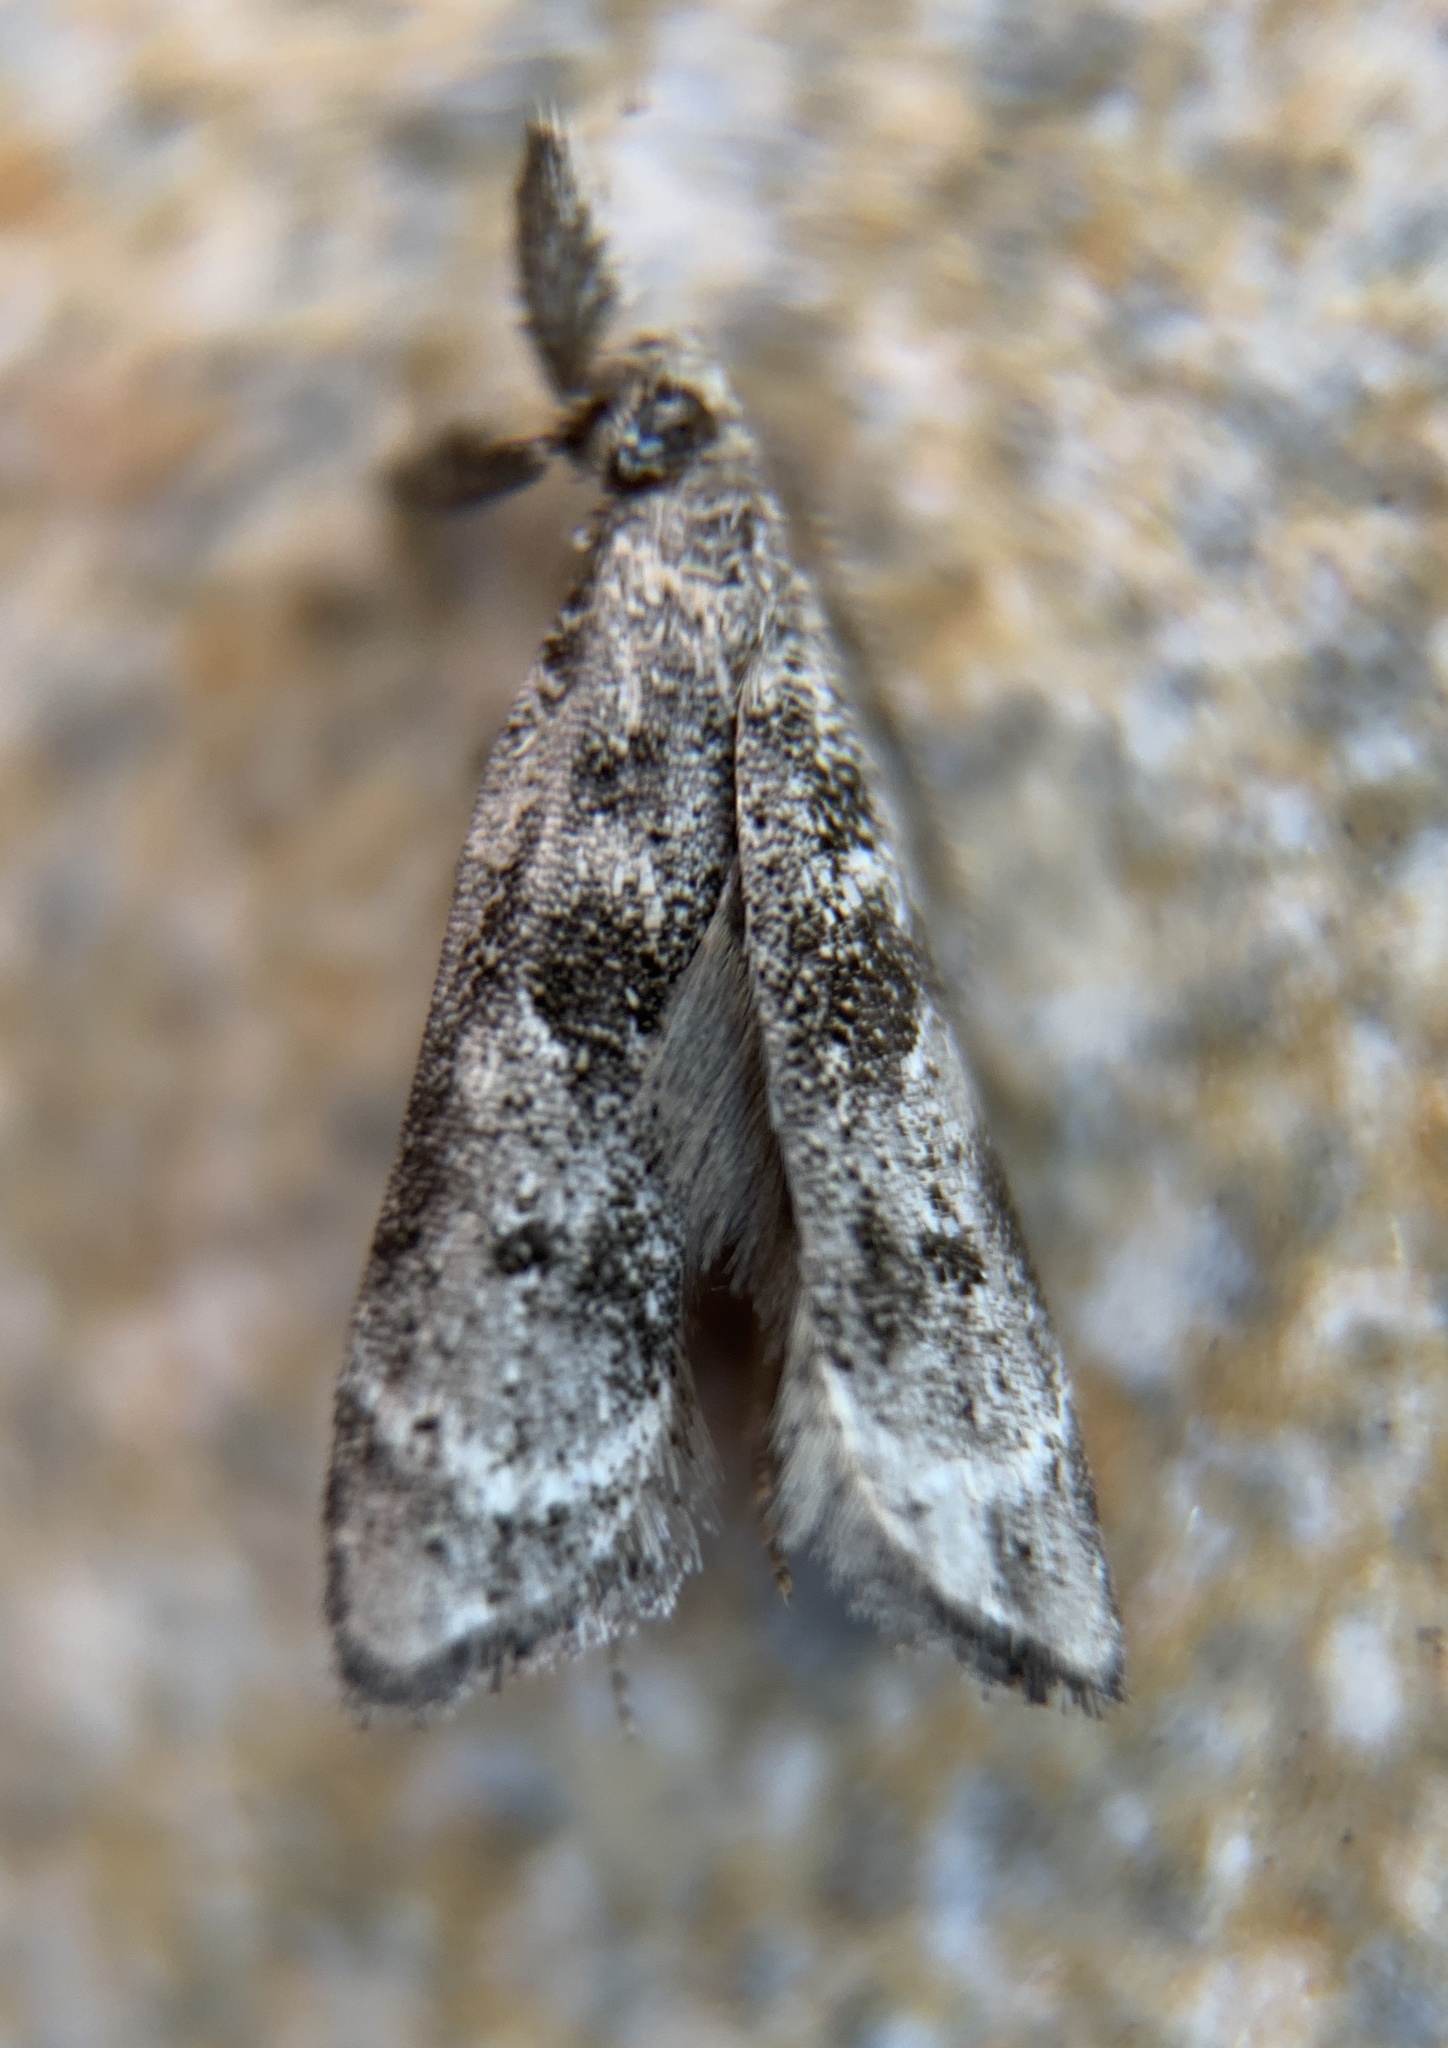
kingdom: Animalia
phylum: Arthropoda
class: Insecta
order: Lepidoptera
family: Gelechiidae
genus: Dichomeris
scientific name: Dichomeris kimballi
